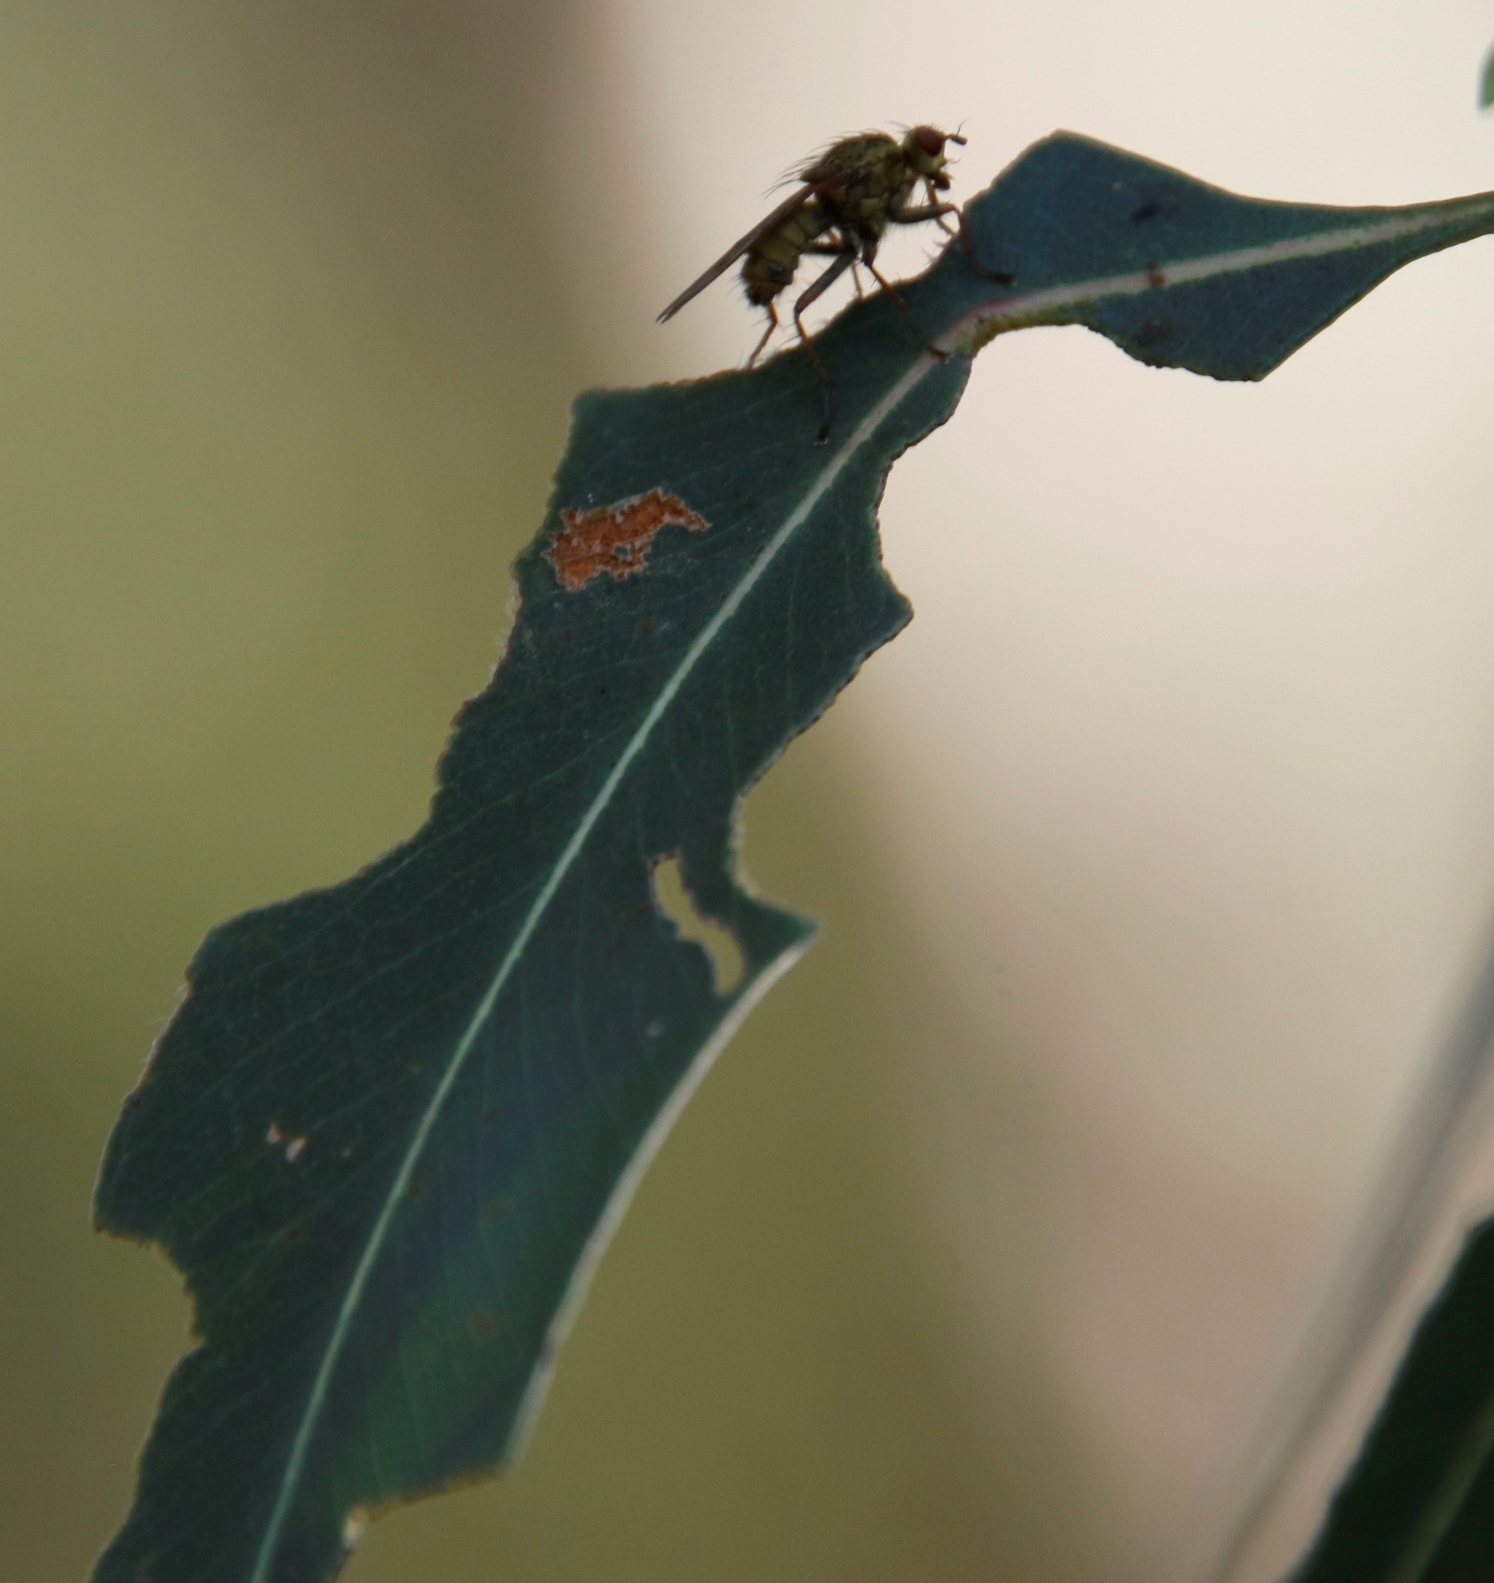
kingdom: Animalia
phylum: Arthropoda
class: Insecta
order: Coleoptera
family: Curculionidae
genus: Gonipterus
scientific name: Gonipterus
